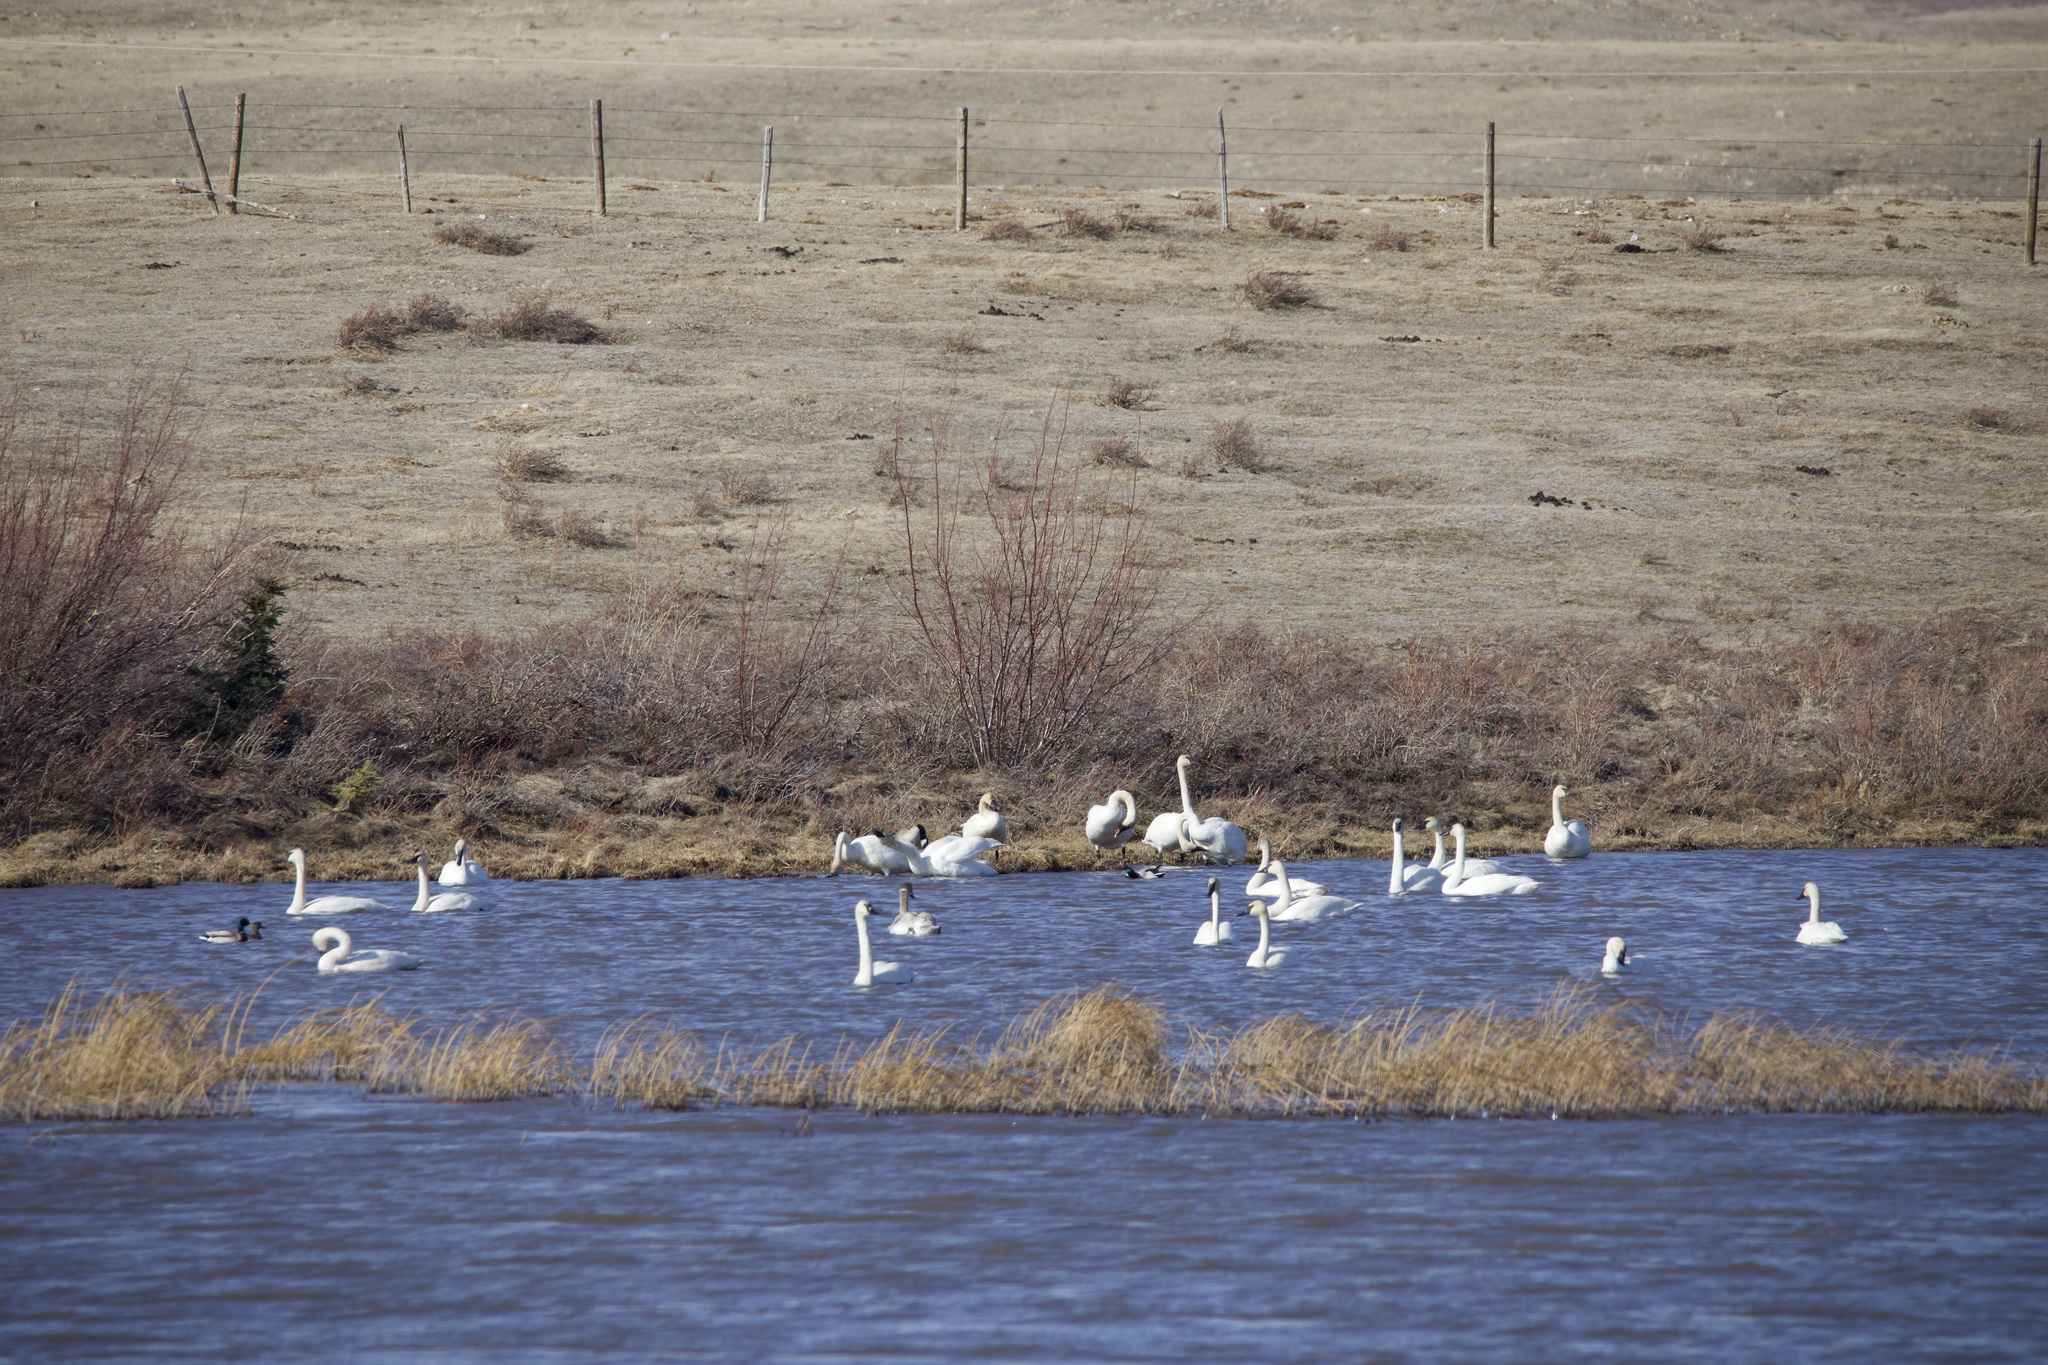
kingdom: Animalia
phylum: Chordata
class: Aves
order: Anseriformes
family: Anatidae
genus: Cygnus
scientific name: Cygnus buccinator
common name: Trumpeter swan
